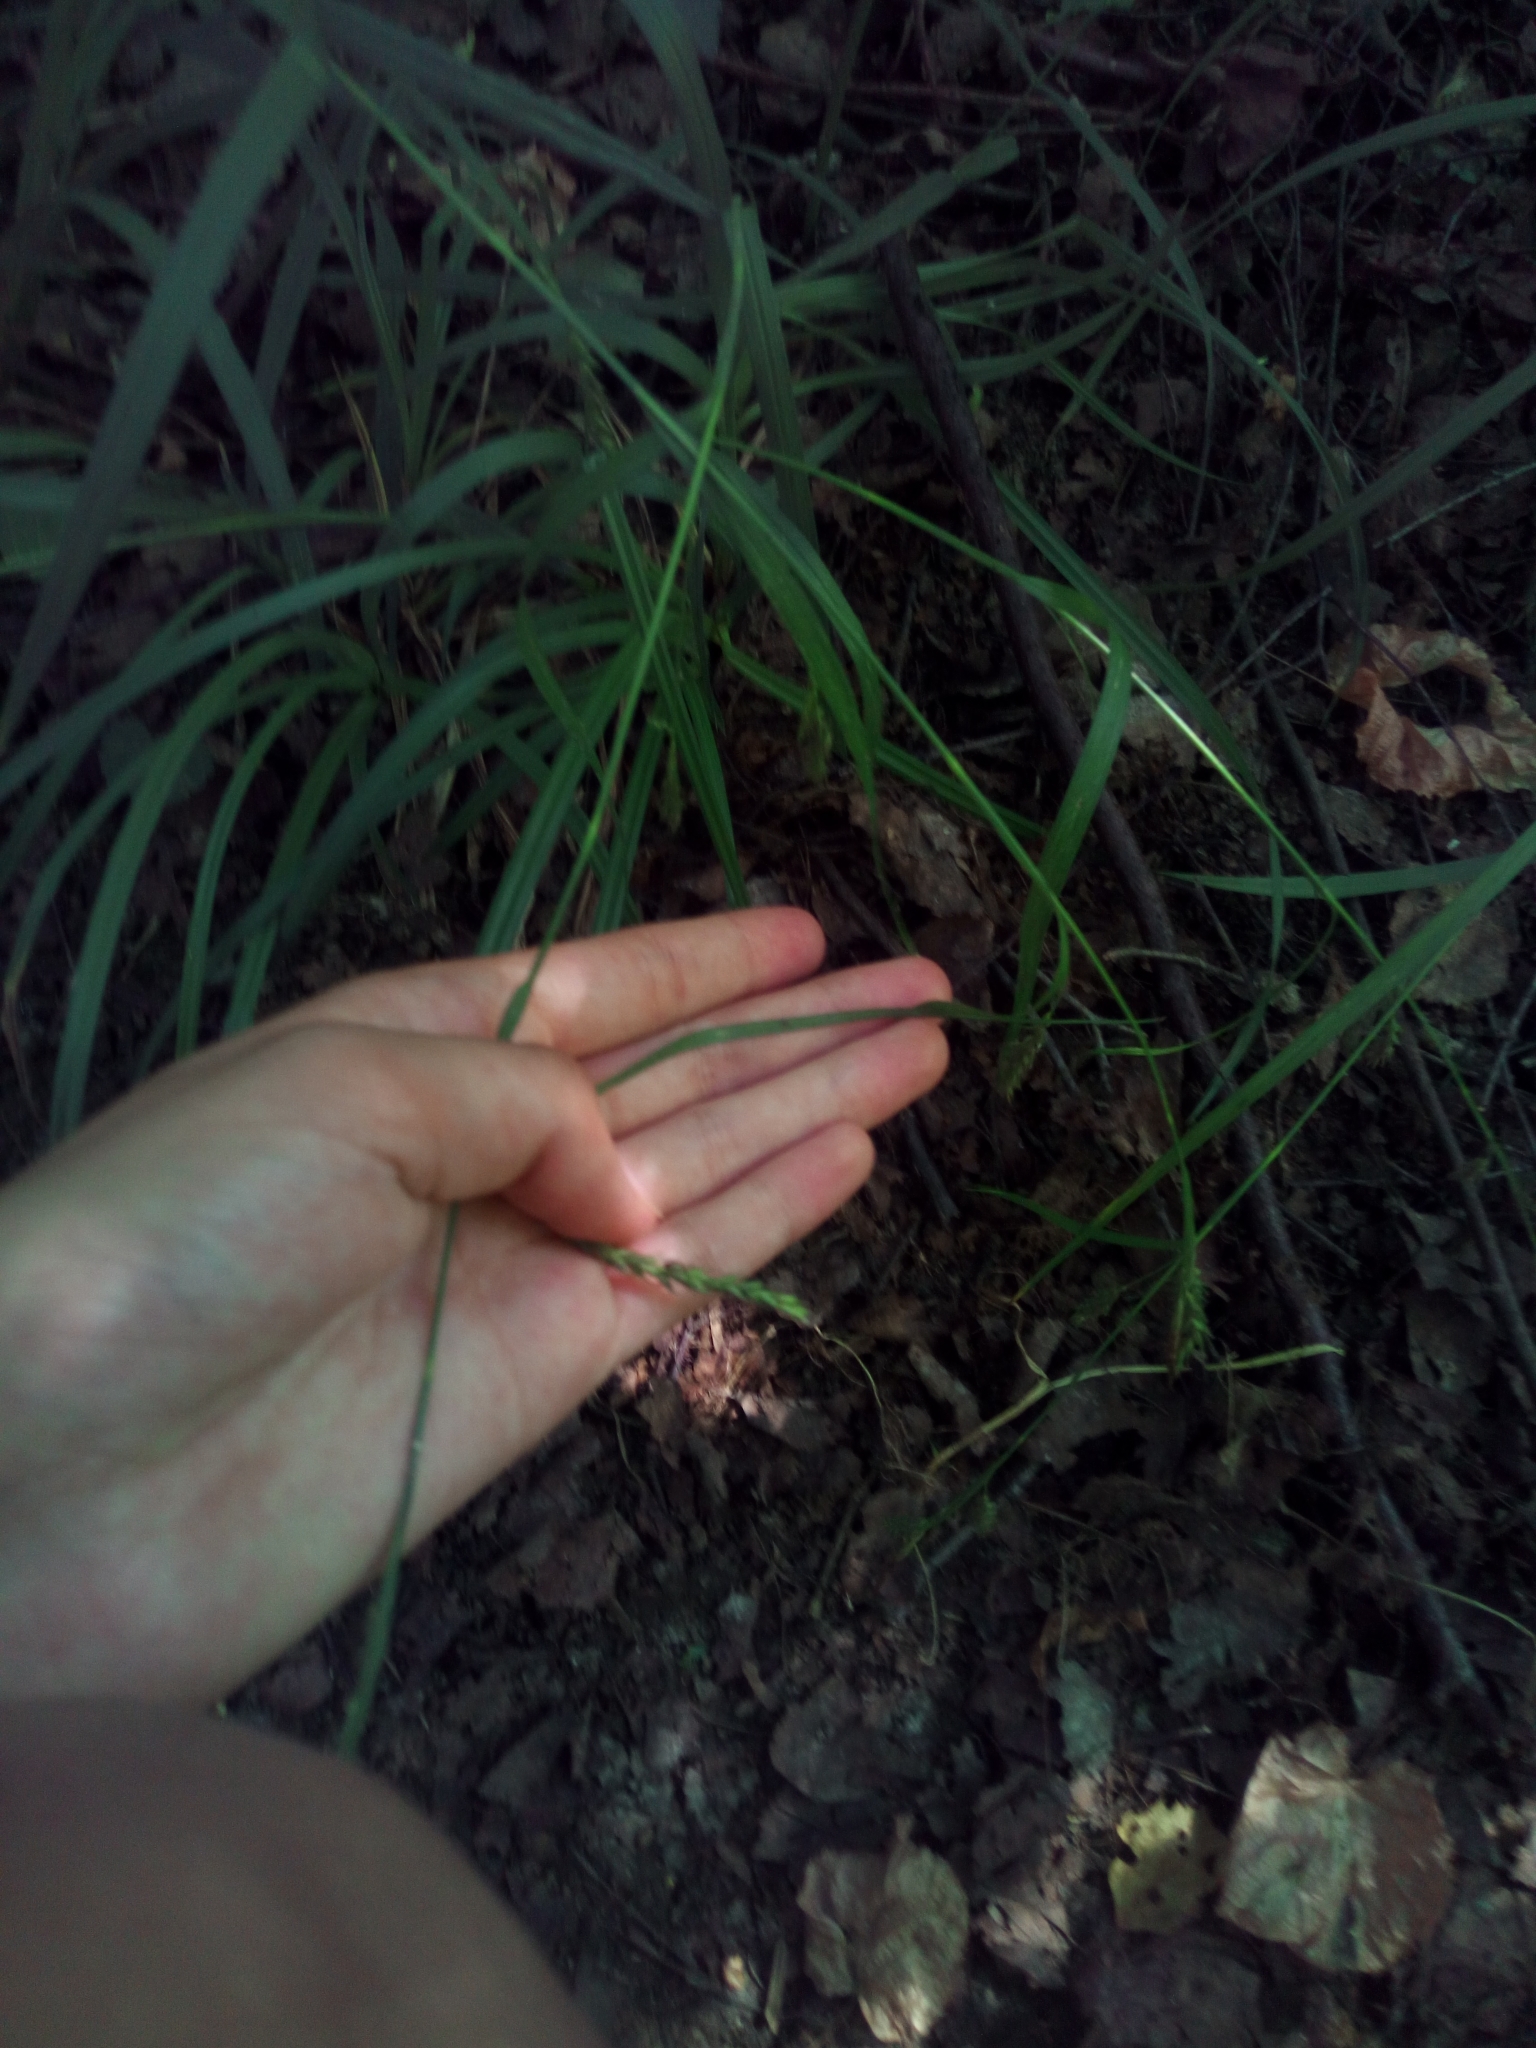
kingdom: Plantae
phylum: Tracheophyta
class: Liliopsida
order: Poales
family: Cyperaceae
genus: Carex
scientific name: Carex sylvatica
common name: Wood-sedge
